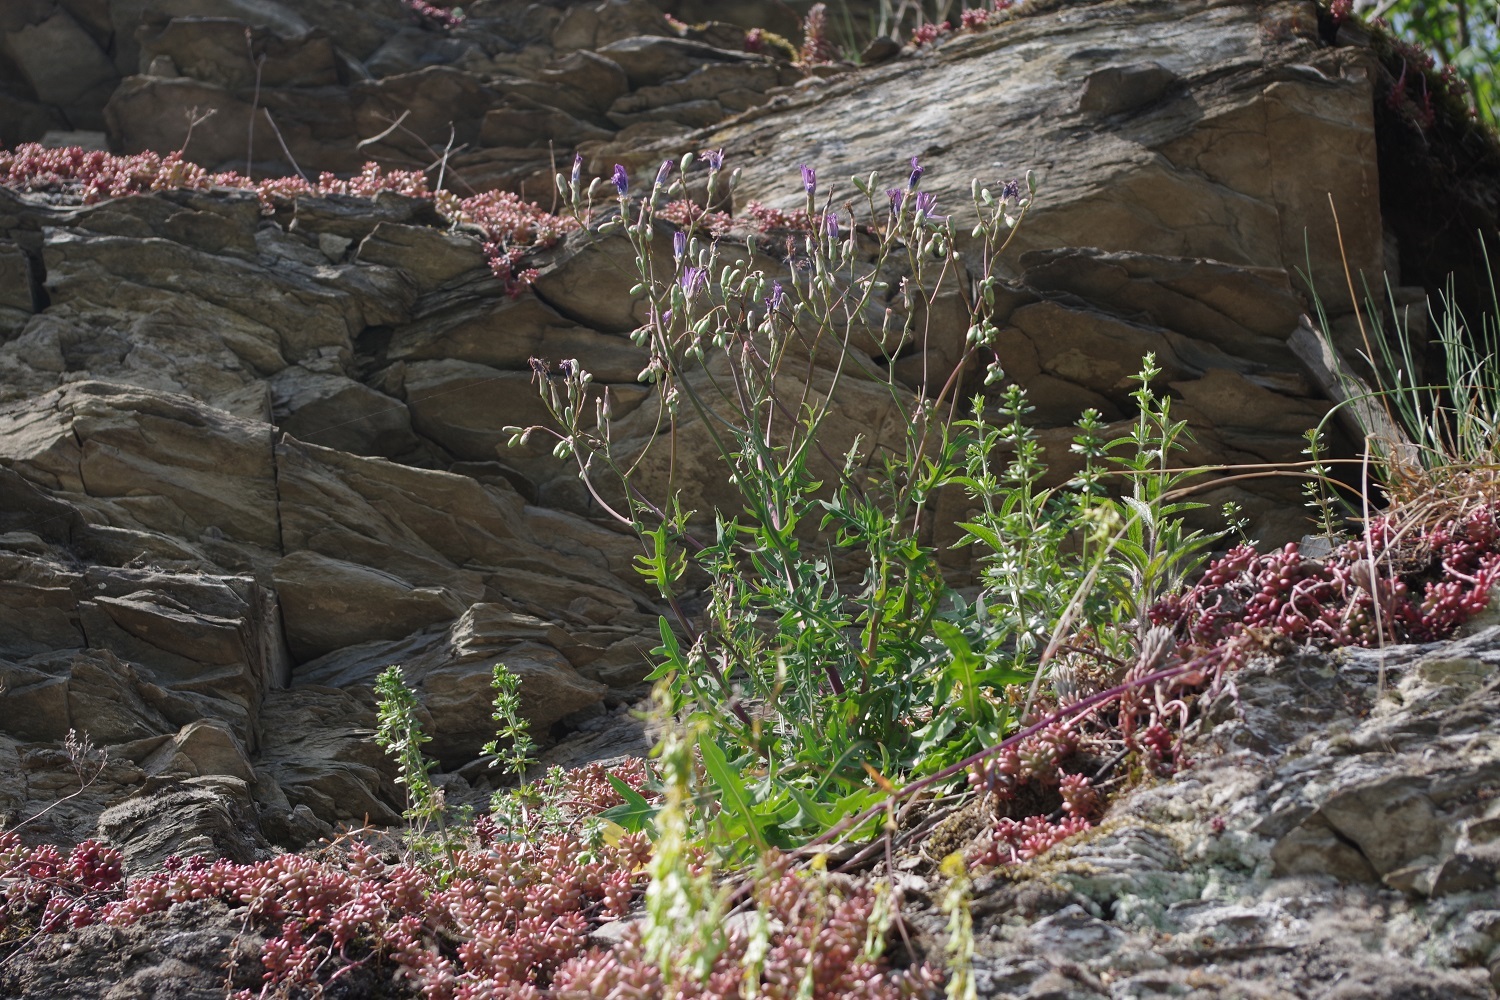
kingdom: Plantae
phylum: Tracheophyta
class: Magnoliopsida
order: Asterales
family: Asteraceae
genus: Lactuca
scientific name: Lactuca perennis
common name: Mountain lettuce
